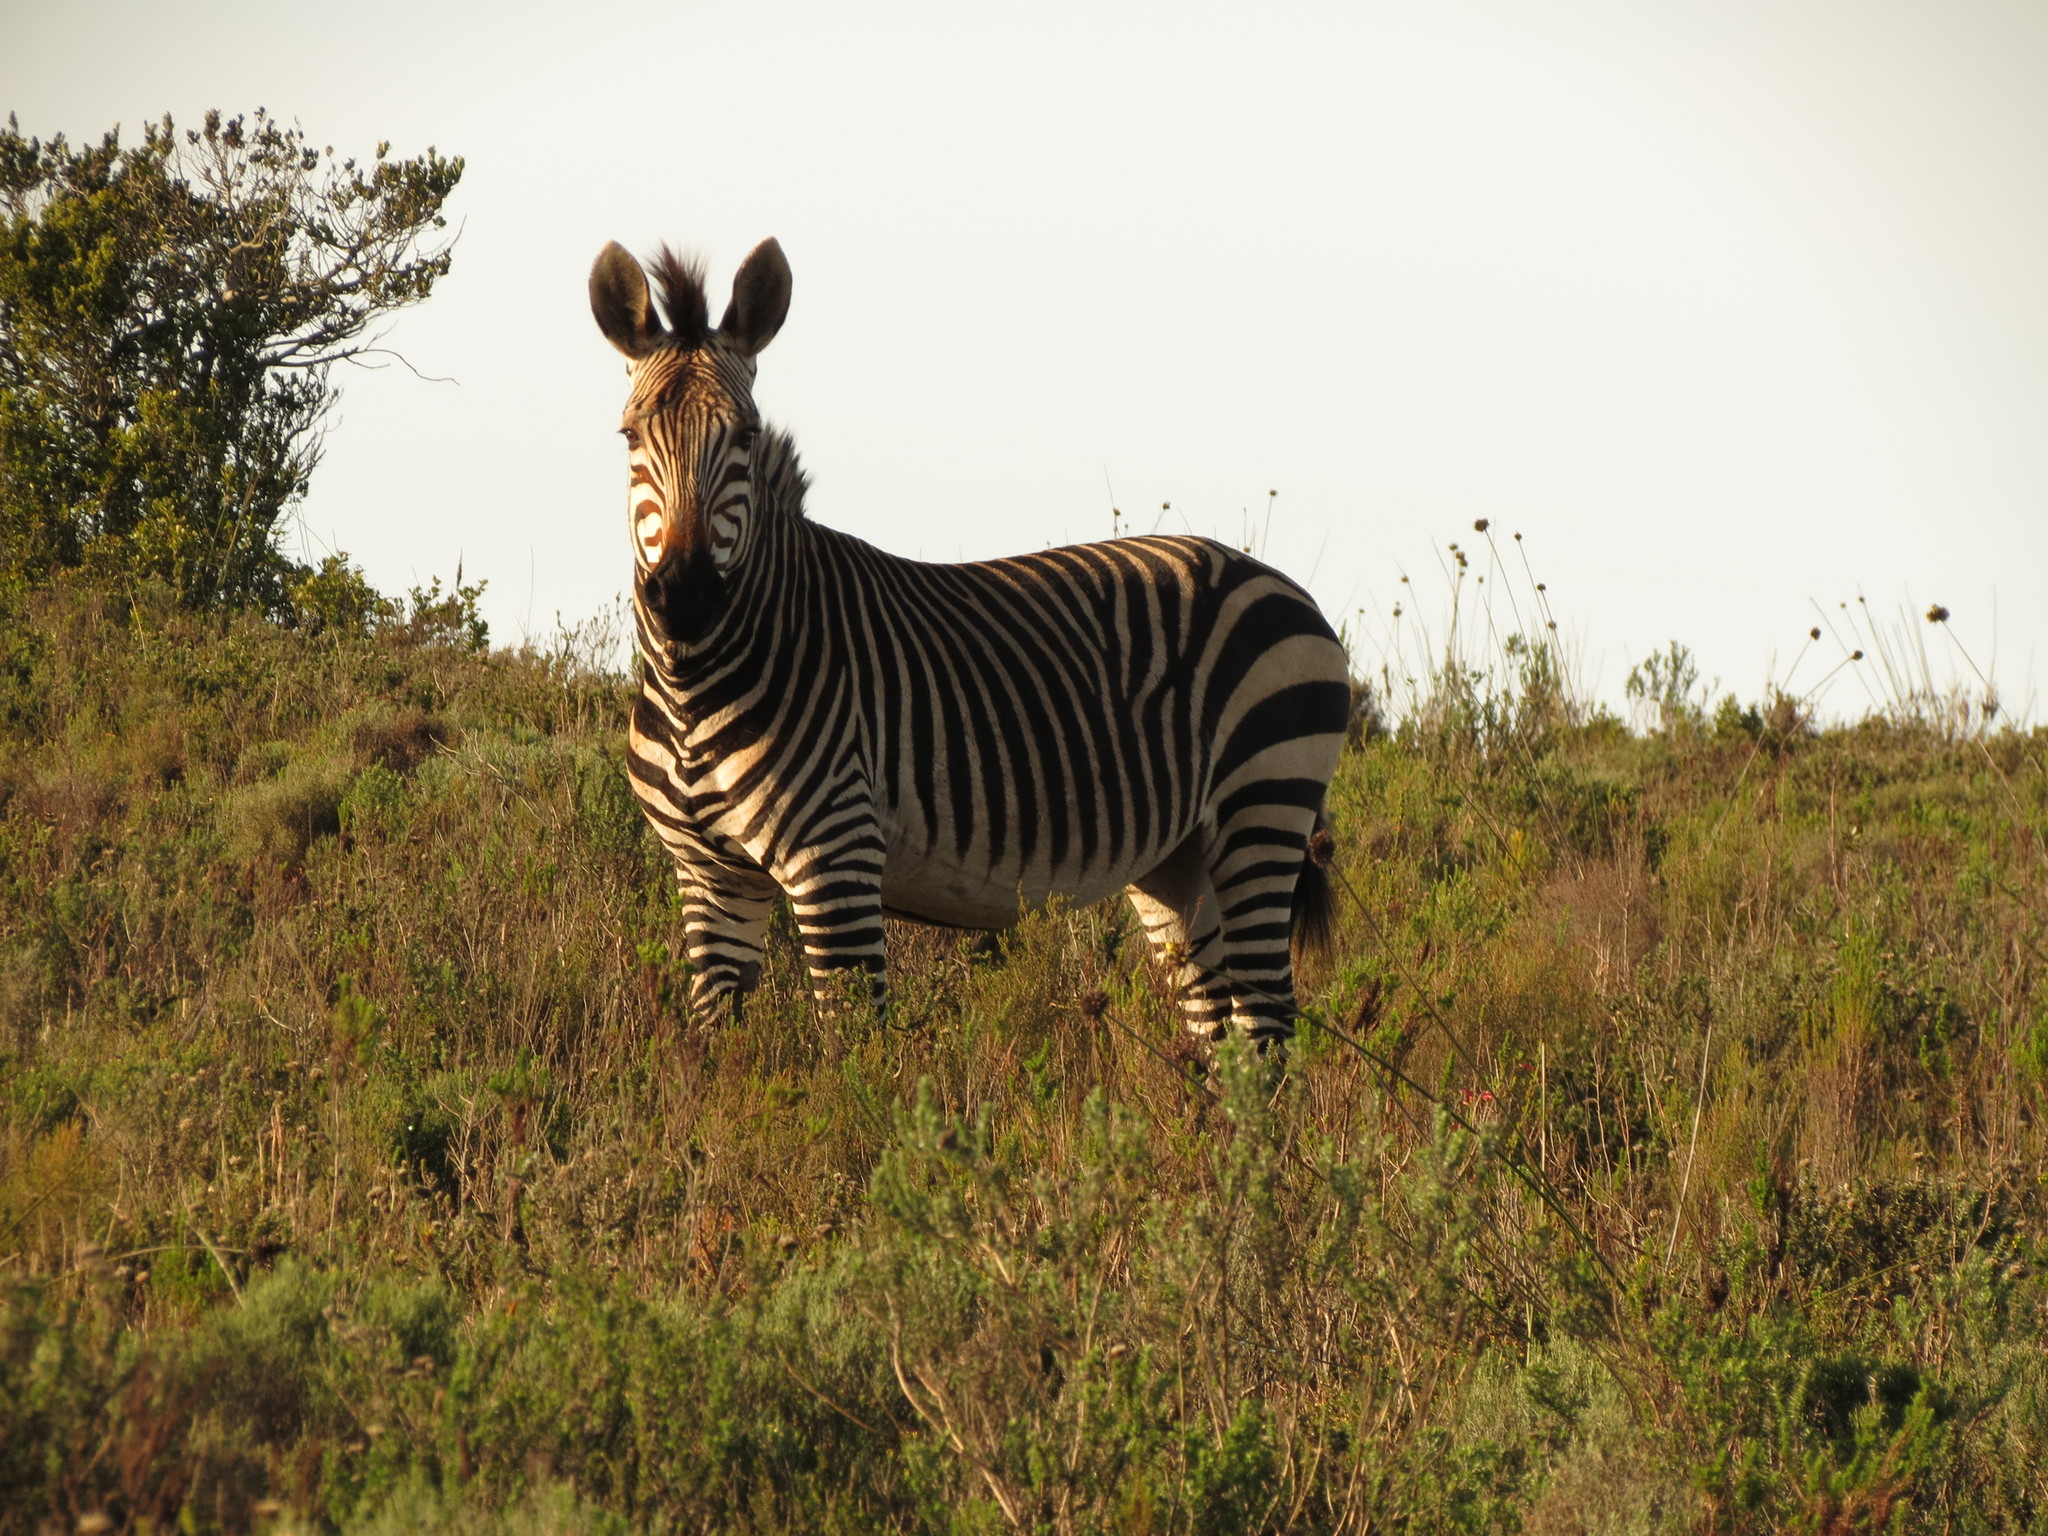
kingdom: Animalia
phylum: Chordata
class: Mammalia
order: Perissodactyla
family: Equidae
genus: Equus
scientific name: Equus zebra
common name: Mountain zebra
